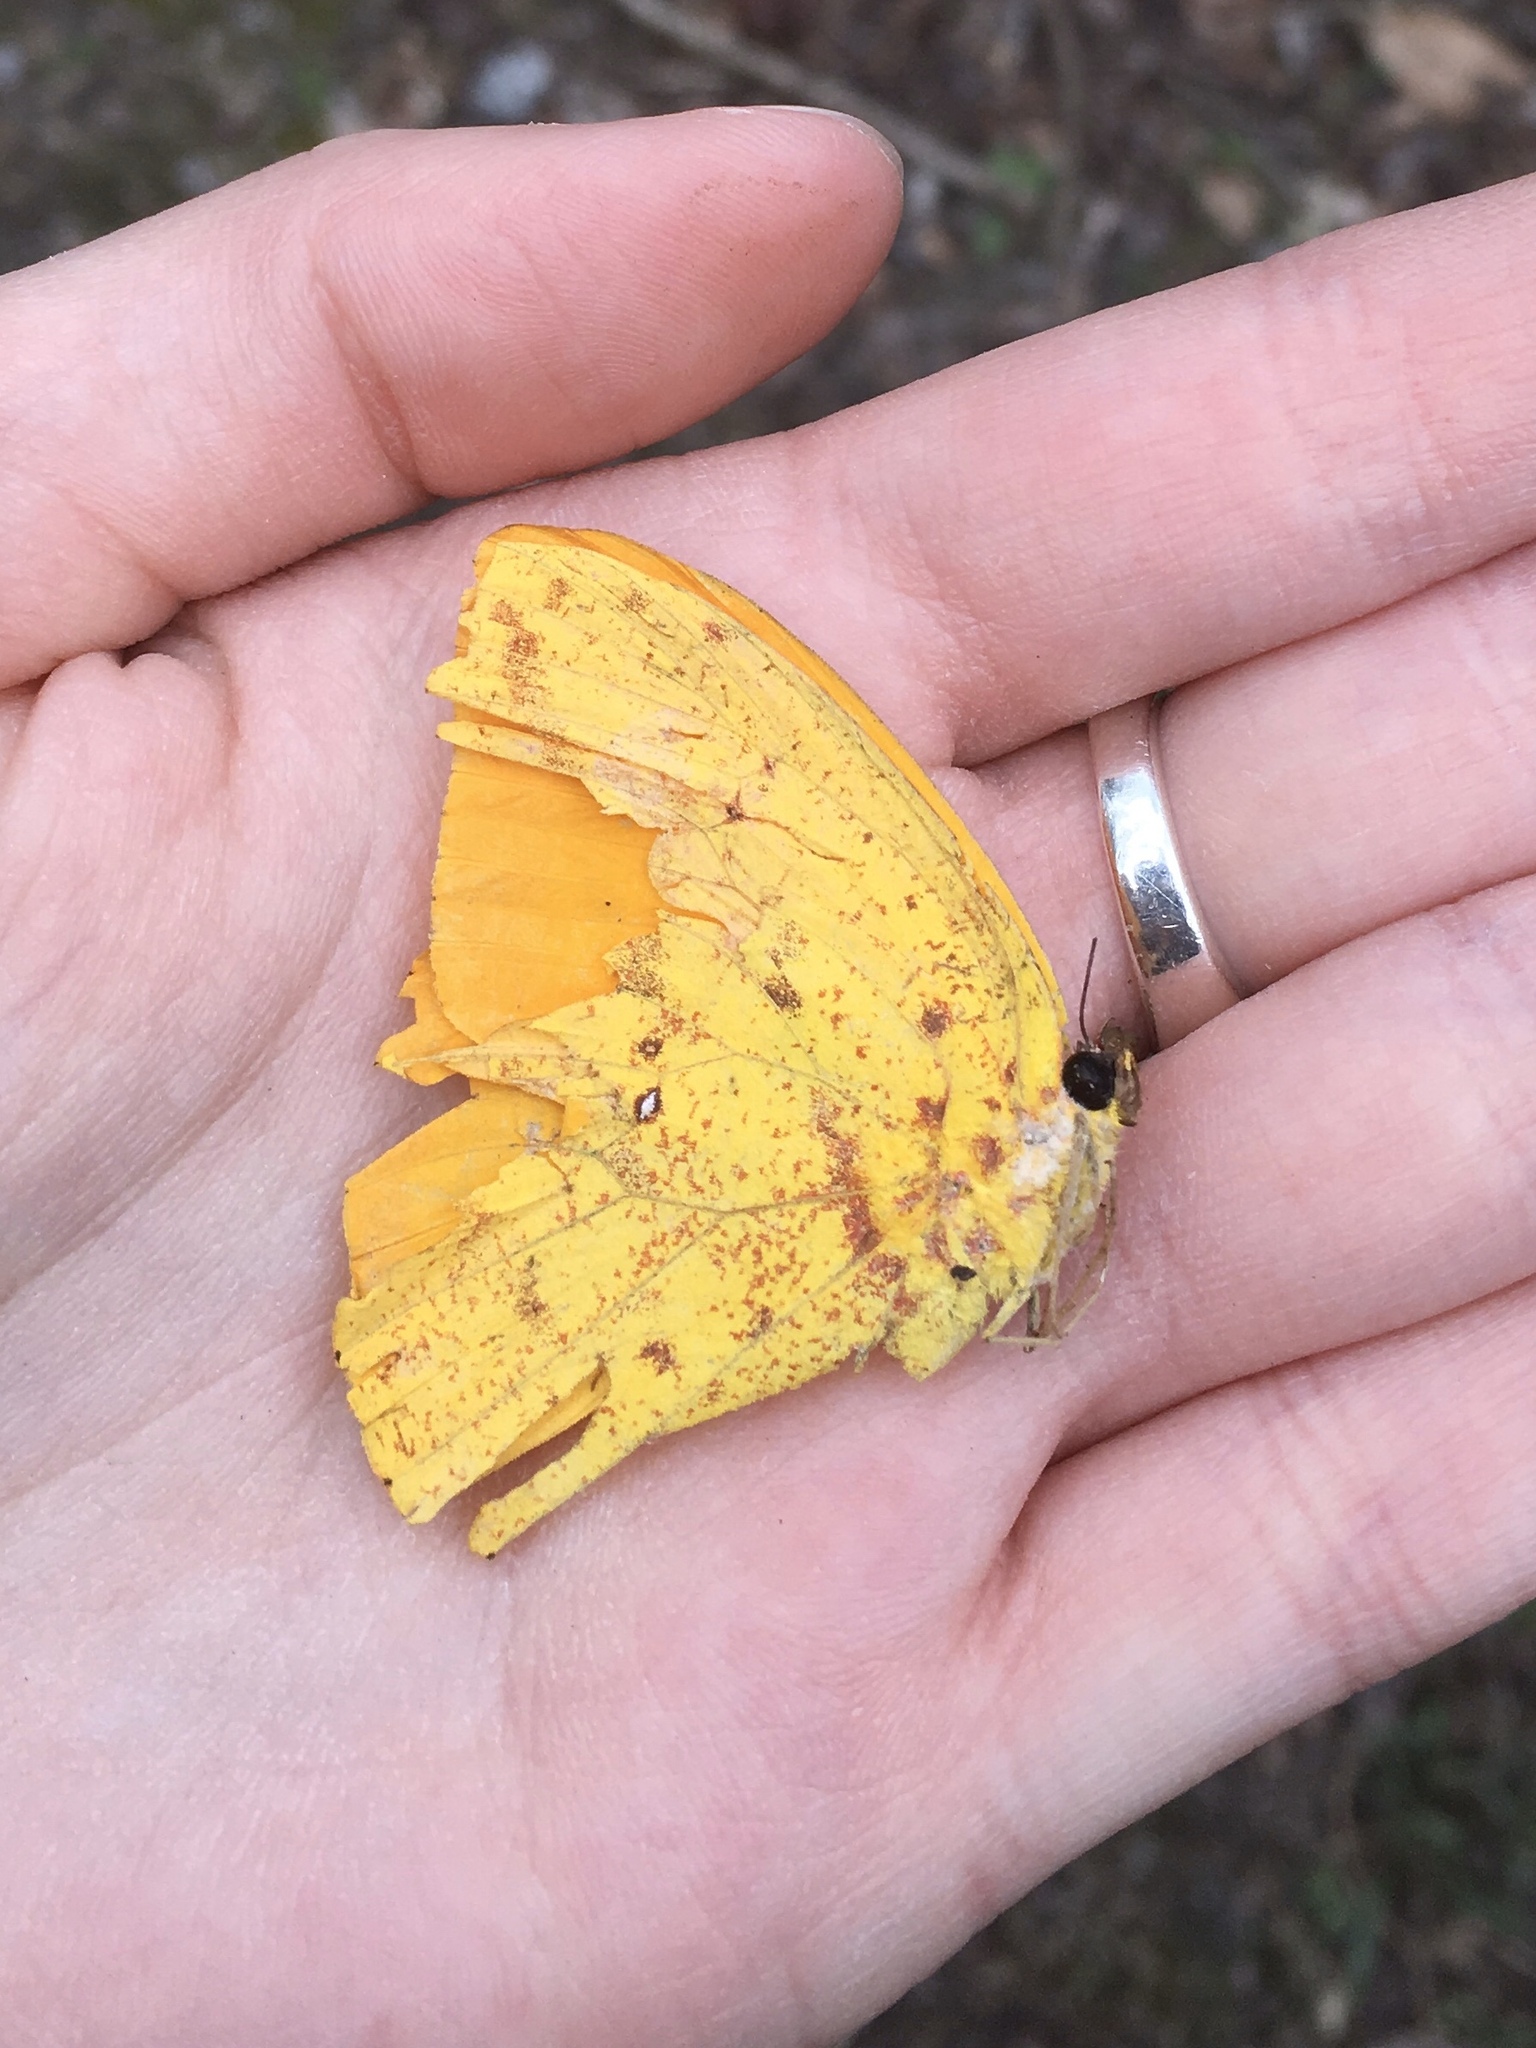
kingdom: Animalia
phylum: Arthropoda
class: Insecta
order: Lepidoptera
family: Pieridae
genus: Phoebis
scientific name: Phoebis agarithe
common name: Large orange sulphur
